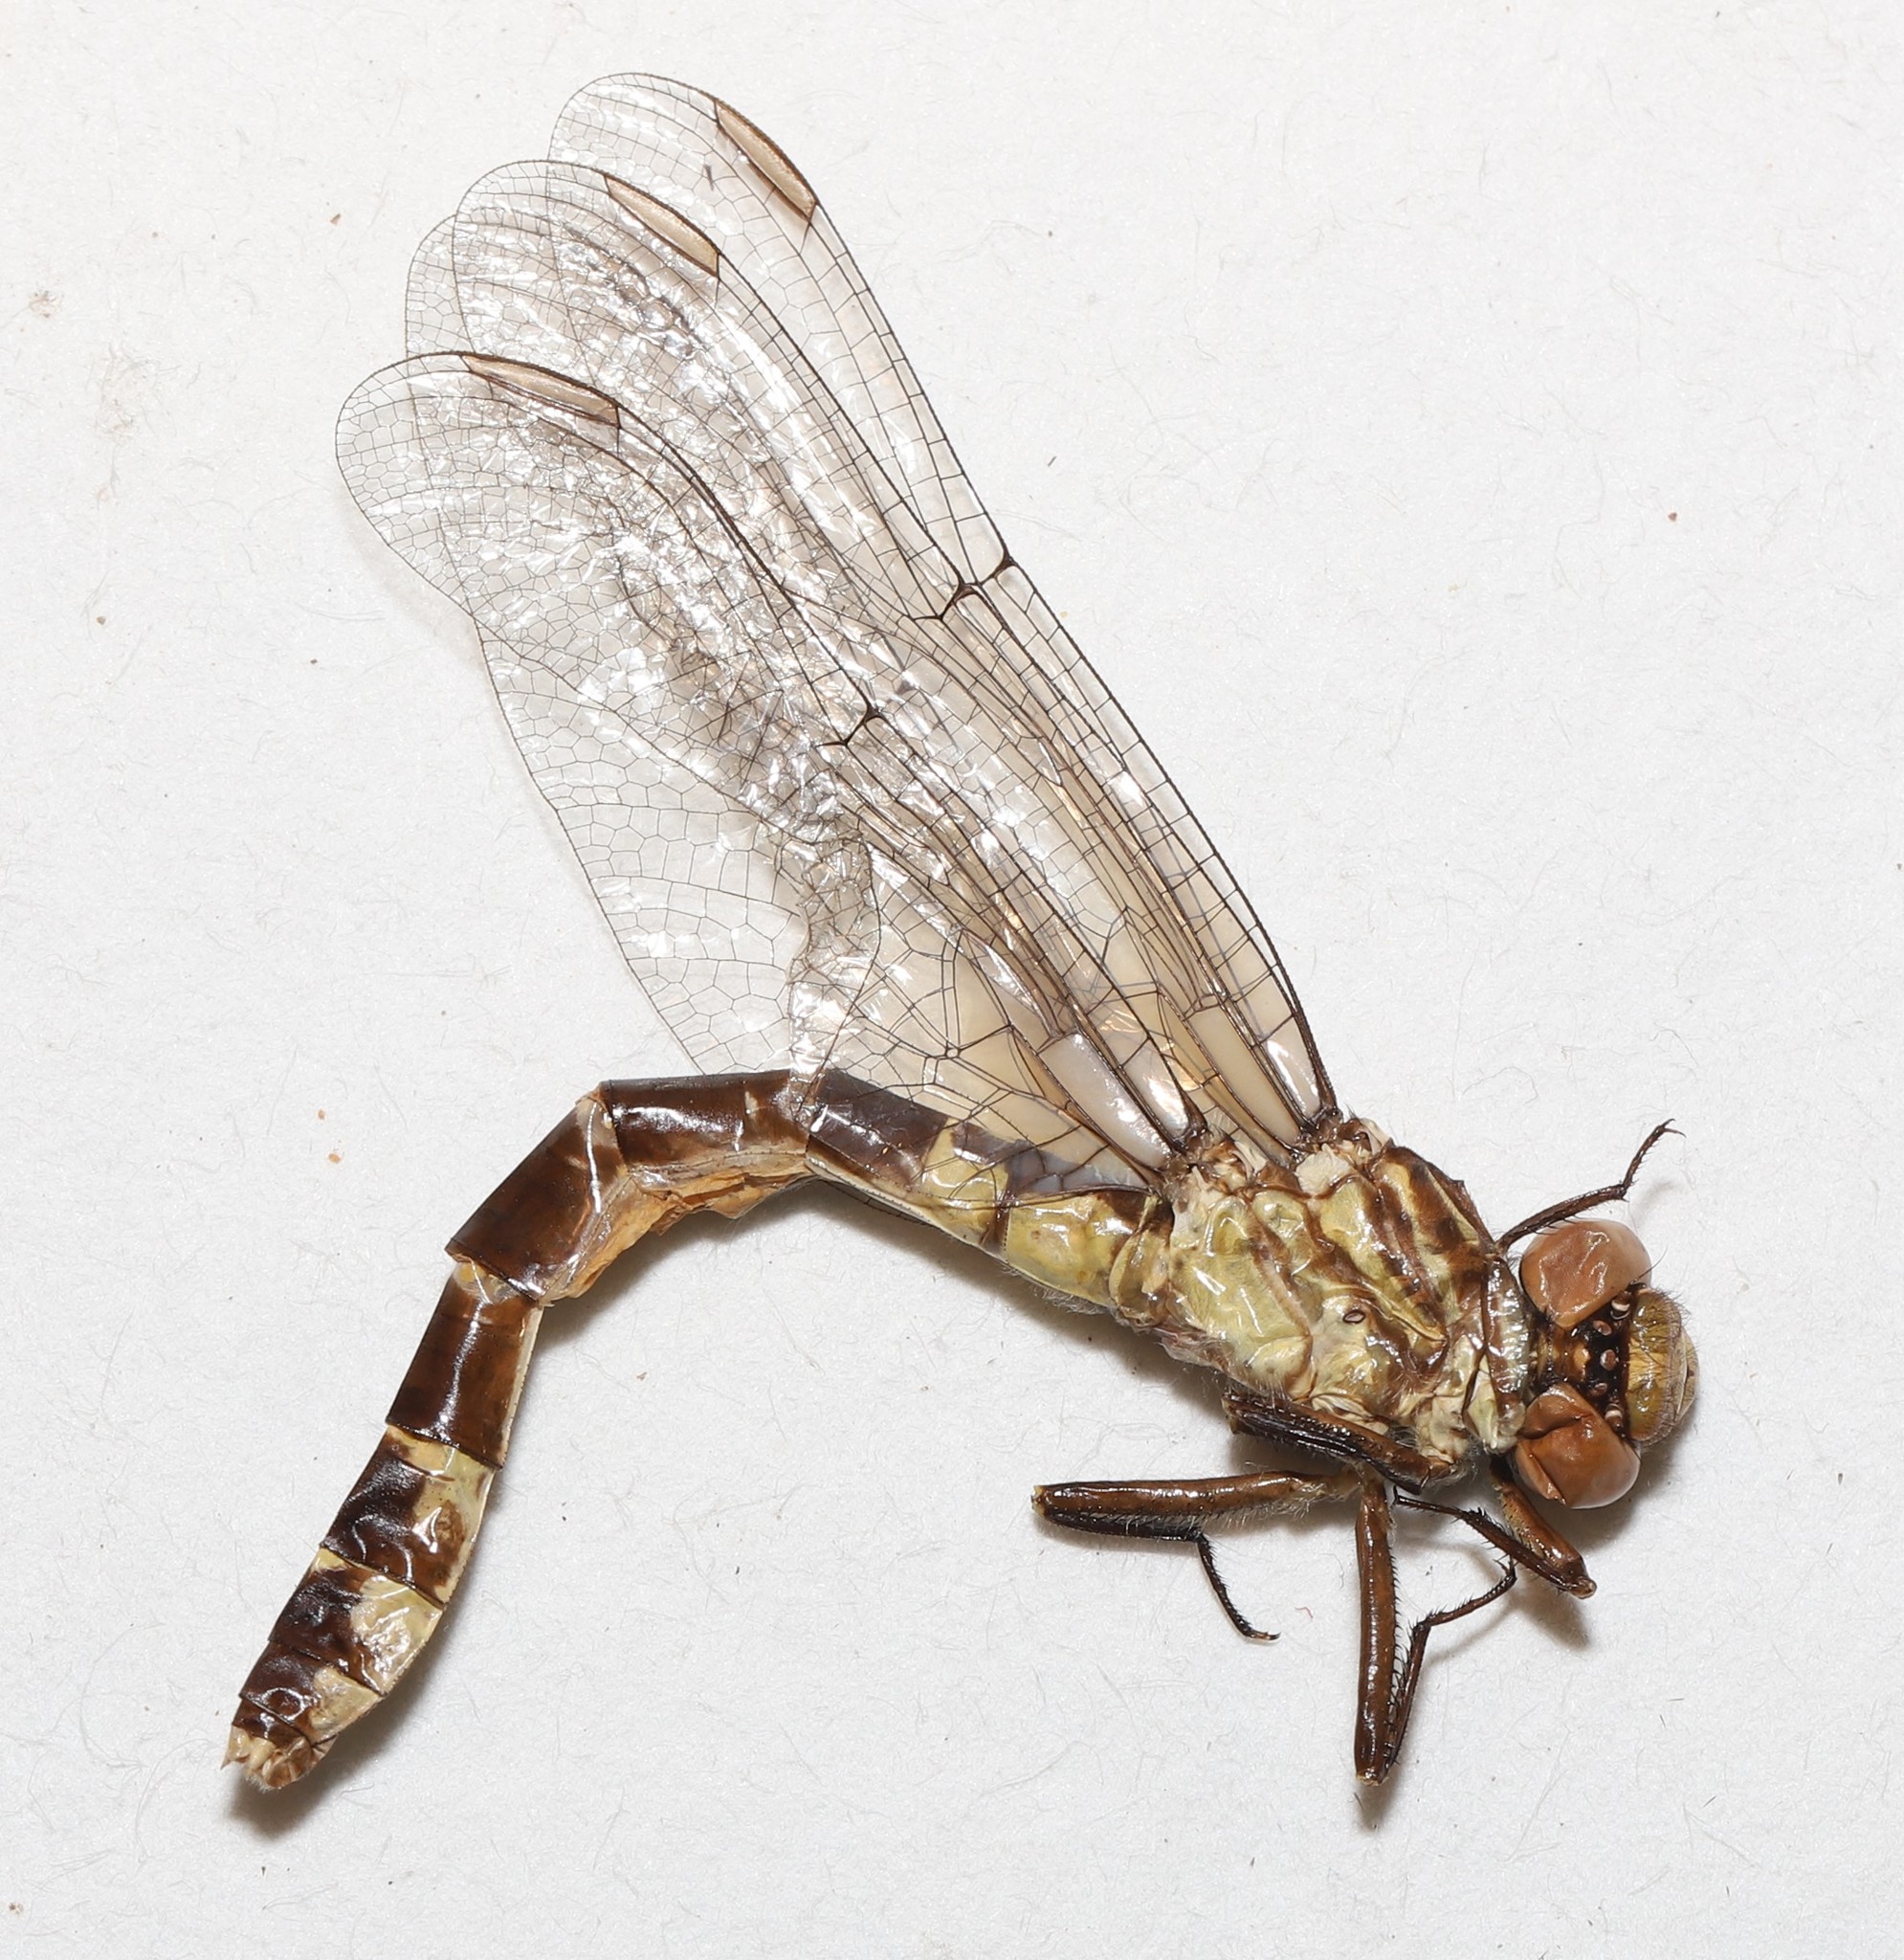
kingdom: Animalia
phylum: Arthropoda
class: Insecta
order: Odonata
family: Gomphidae
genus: Stylogomphus
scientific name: Stylogomphus albistylus
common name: Eastern least clubtail
